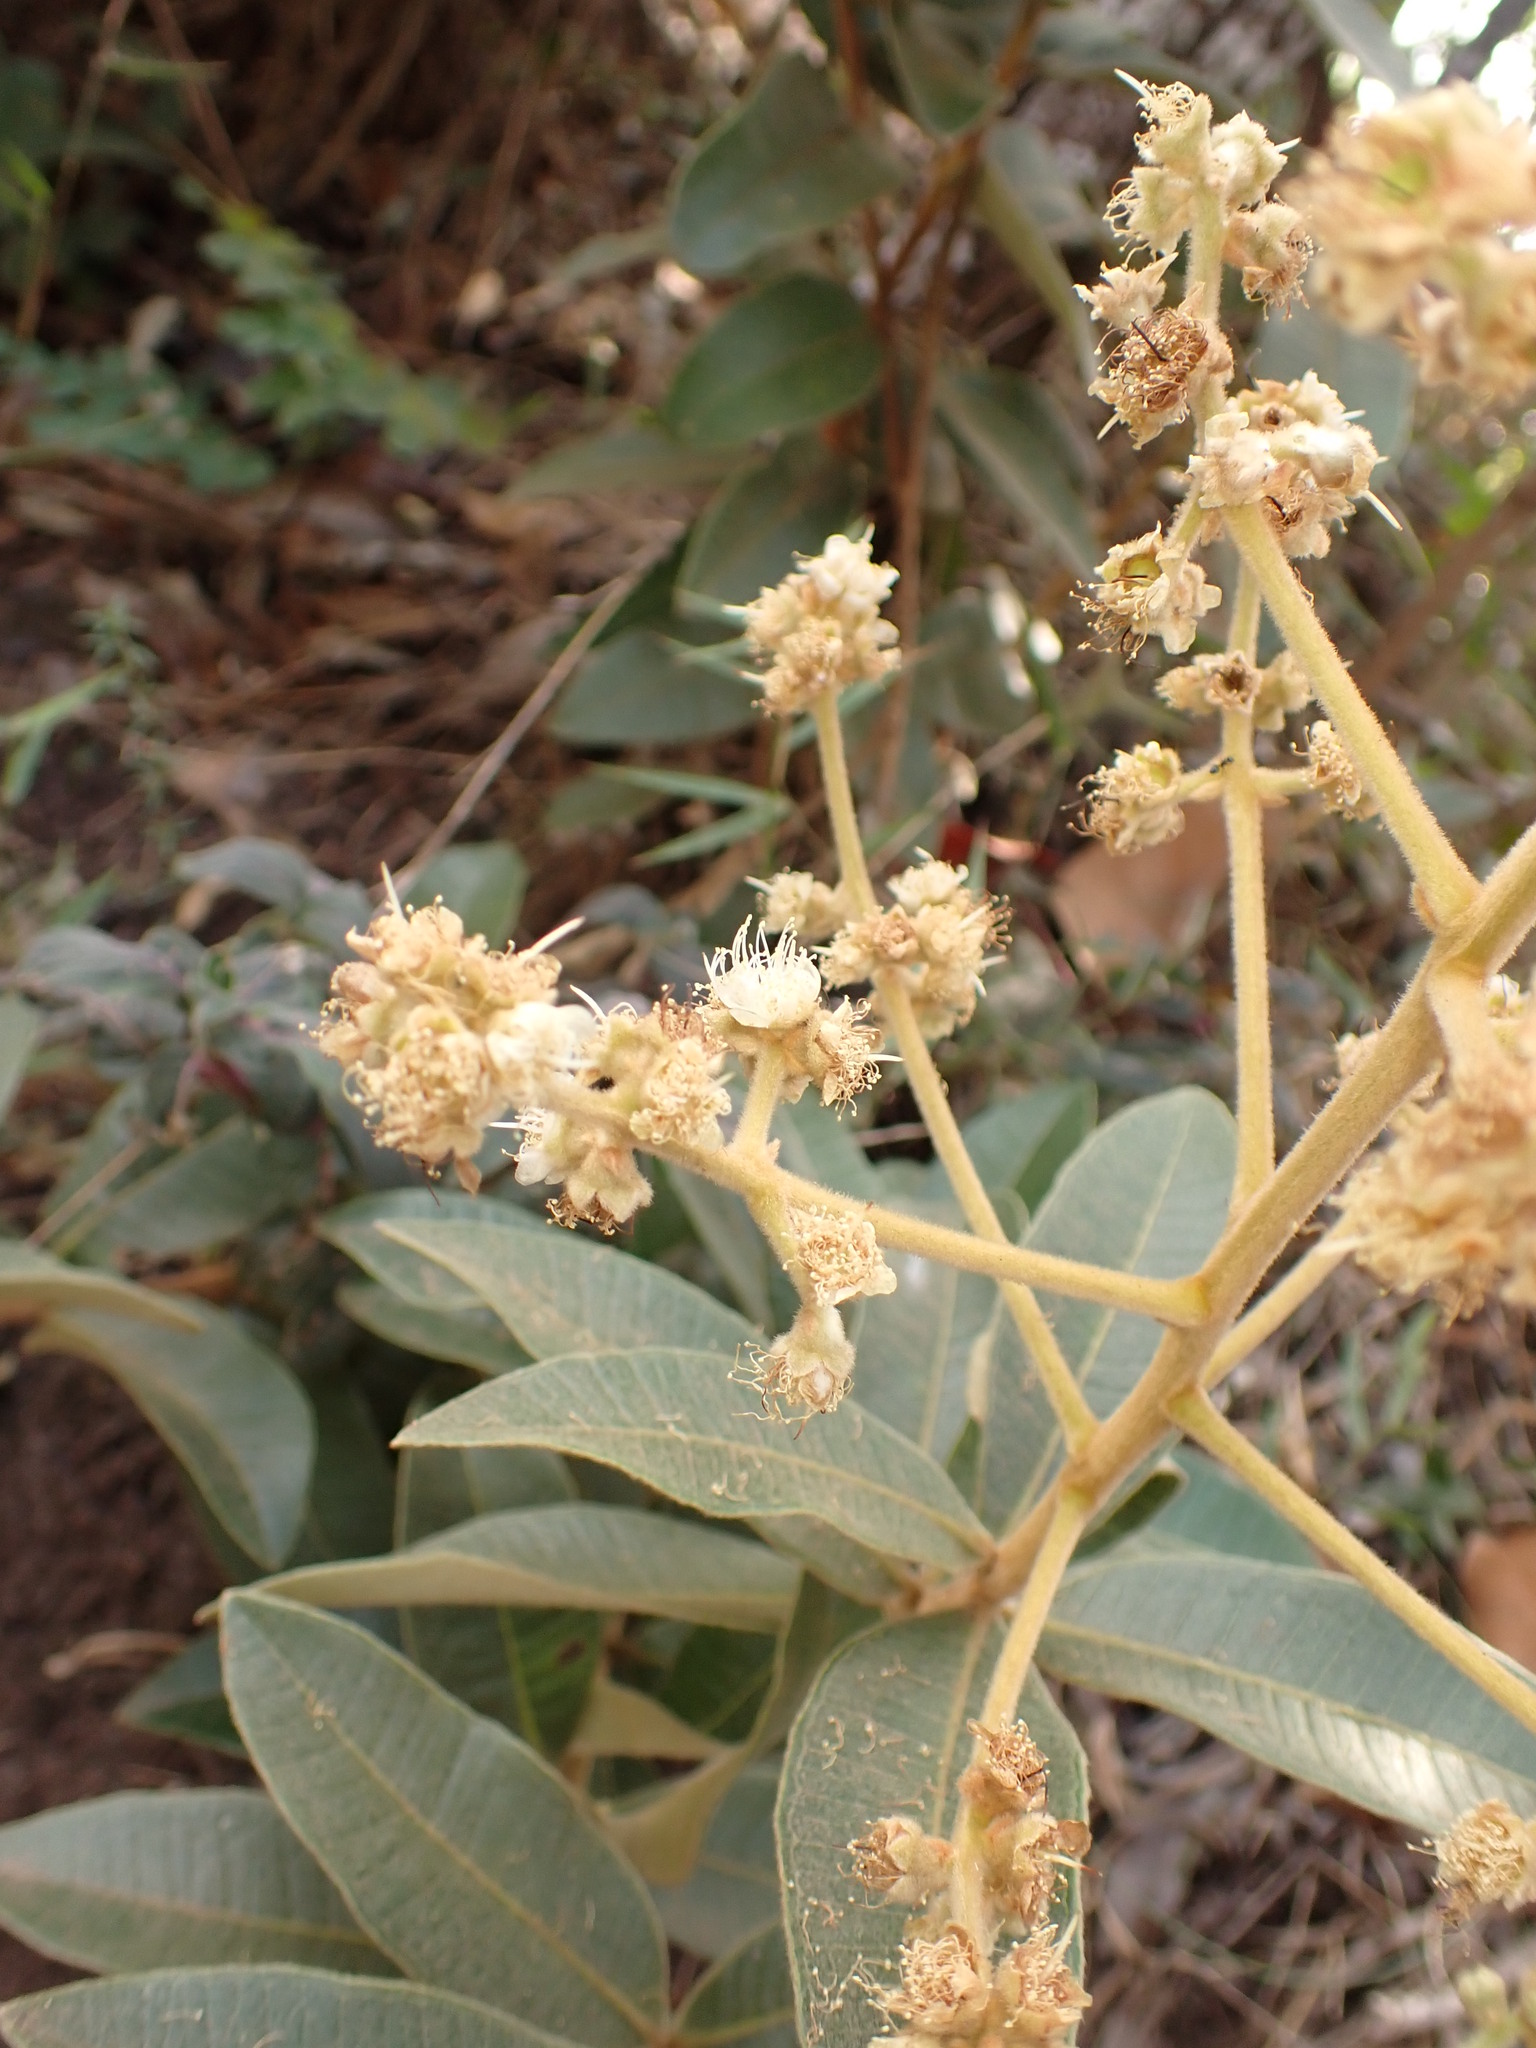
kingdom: Plantae
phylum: Tracheophyta
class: Magnoliopsida
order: Myrtales
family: Melastomataceae
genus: Miconia
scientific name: Miconia albicans
